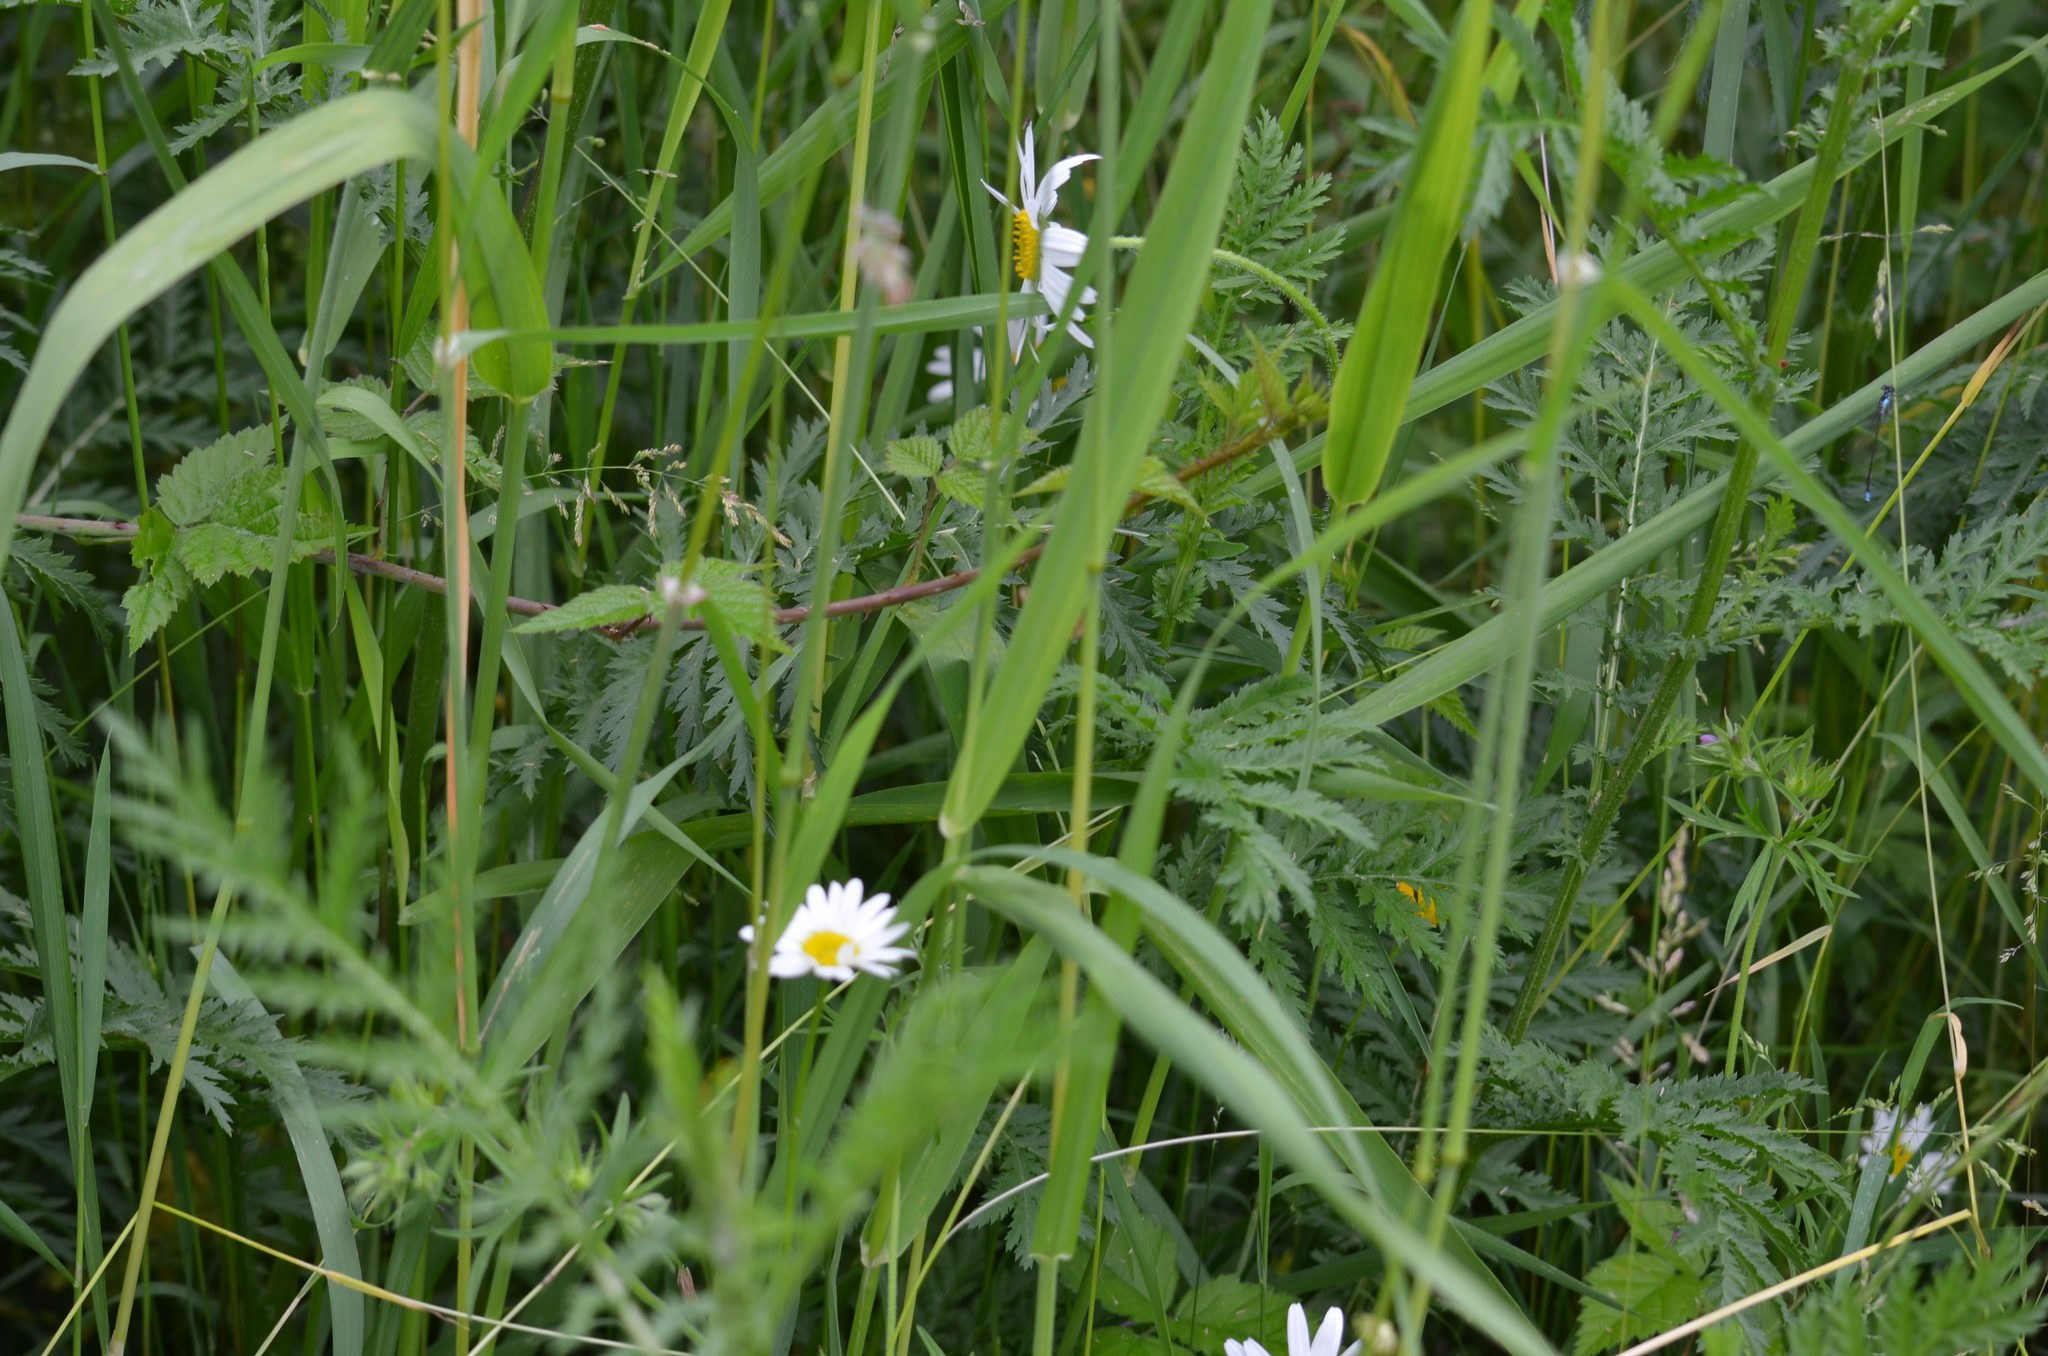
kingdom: Plantae
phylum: Tracheophyta
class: Magnoliopsida
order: Asterales
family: Asteraceae
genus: Leucanthemum
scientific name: Leucanthemum vulgare
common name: Oxeye daisy
